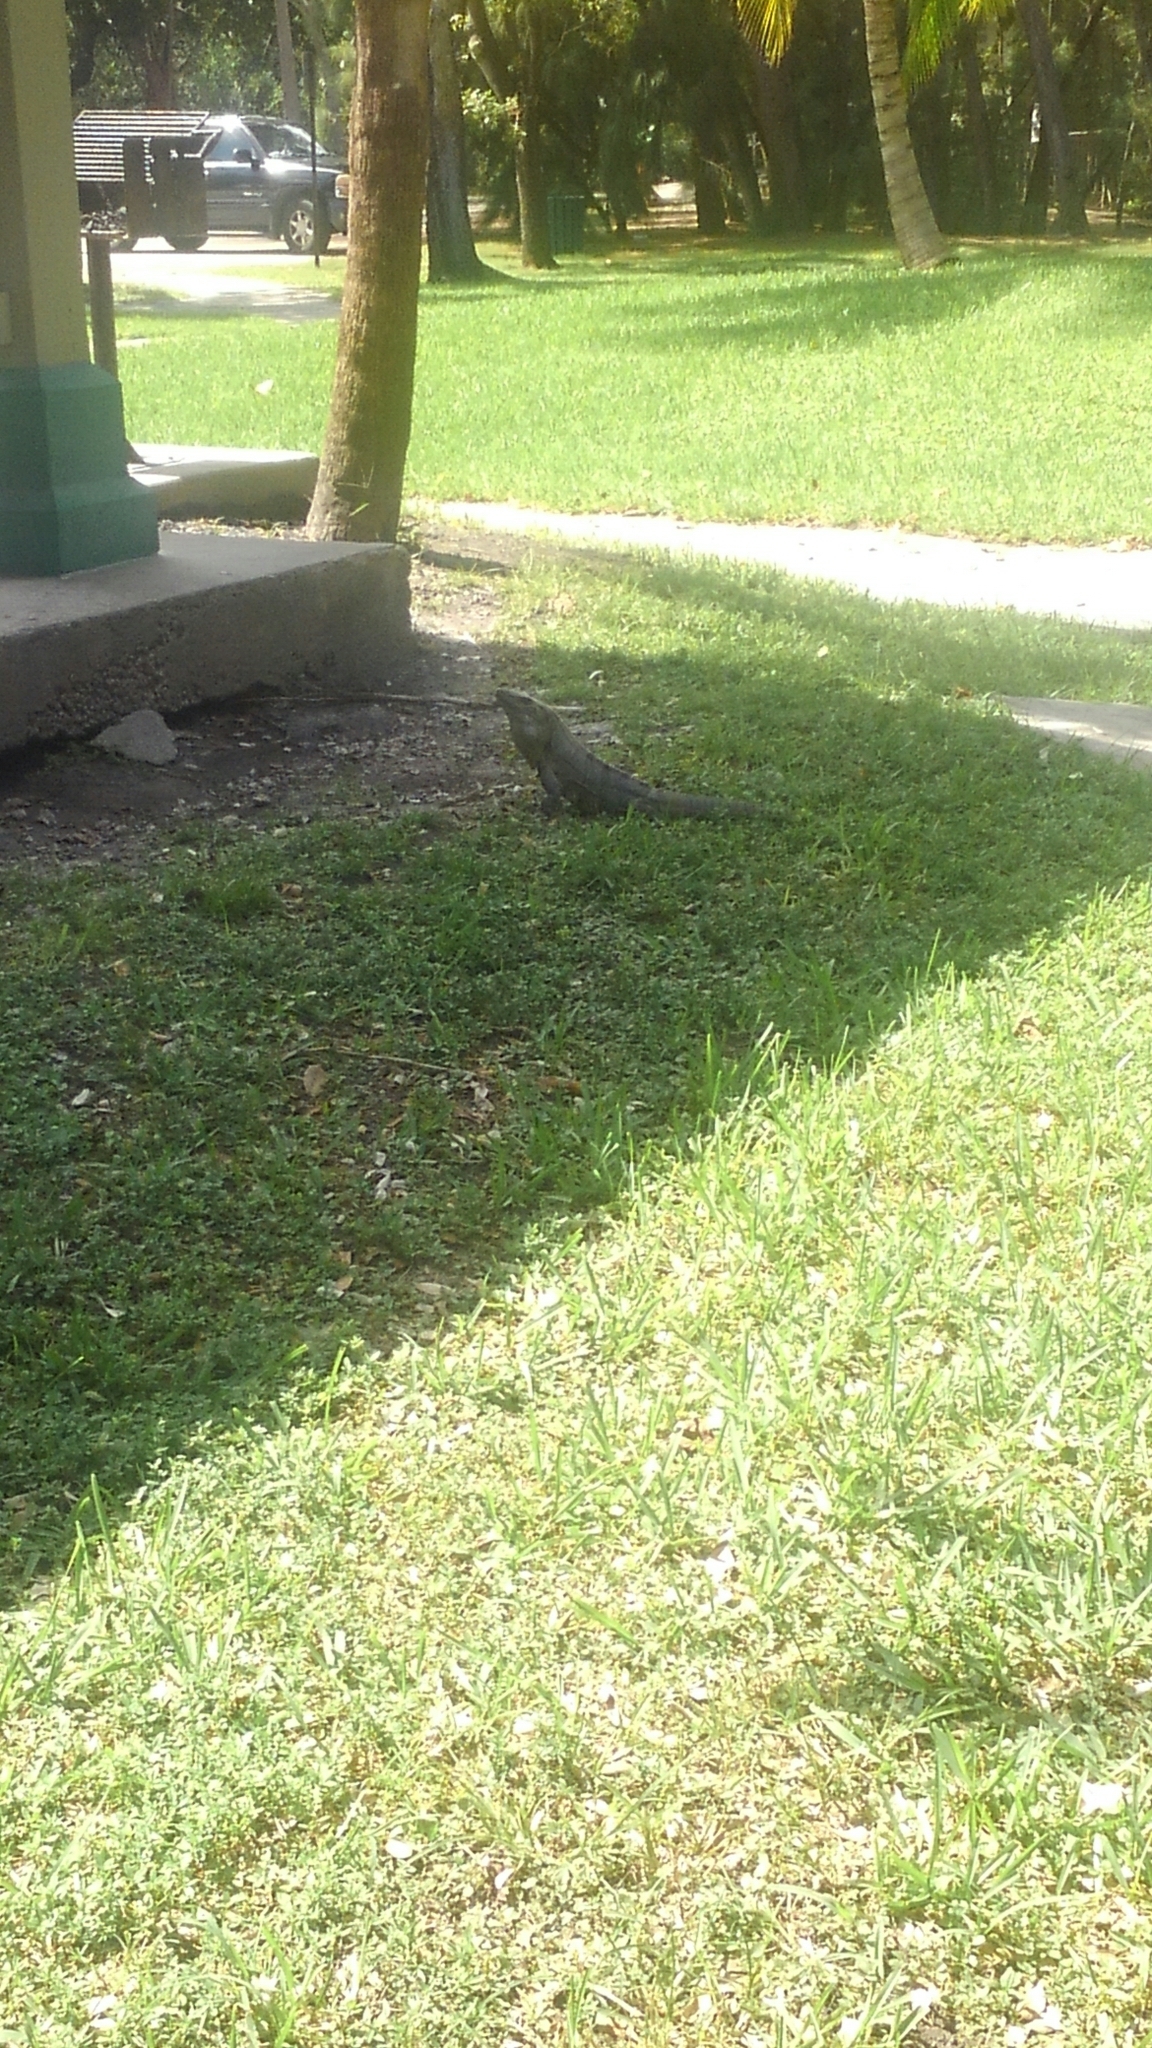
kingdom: Animalia
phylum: Chordata
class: Squamata
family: Iguanidae
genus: Ctenosaura
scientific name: Ctenosaura similis
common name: Black spiny-tailed iguana
